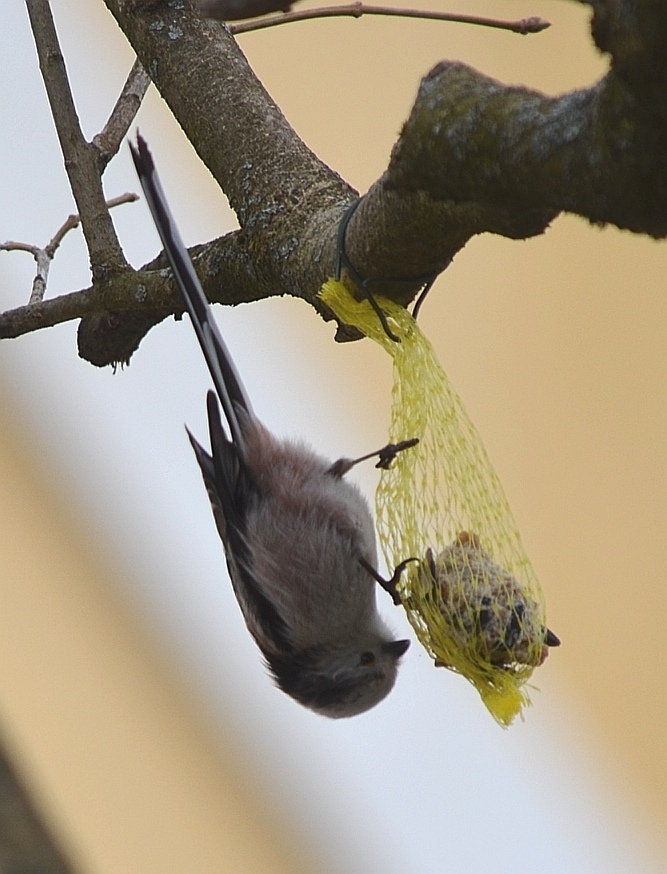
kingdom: Animalia
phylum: Chordata
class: Aves
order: Passeriformes
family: Aegithalidae
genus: Aegithalos
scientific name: Aegithalos caudatus
